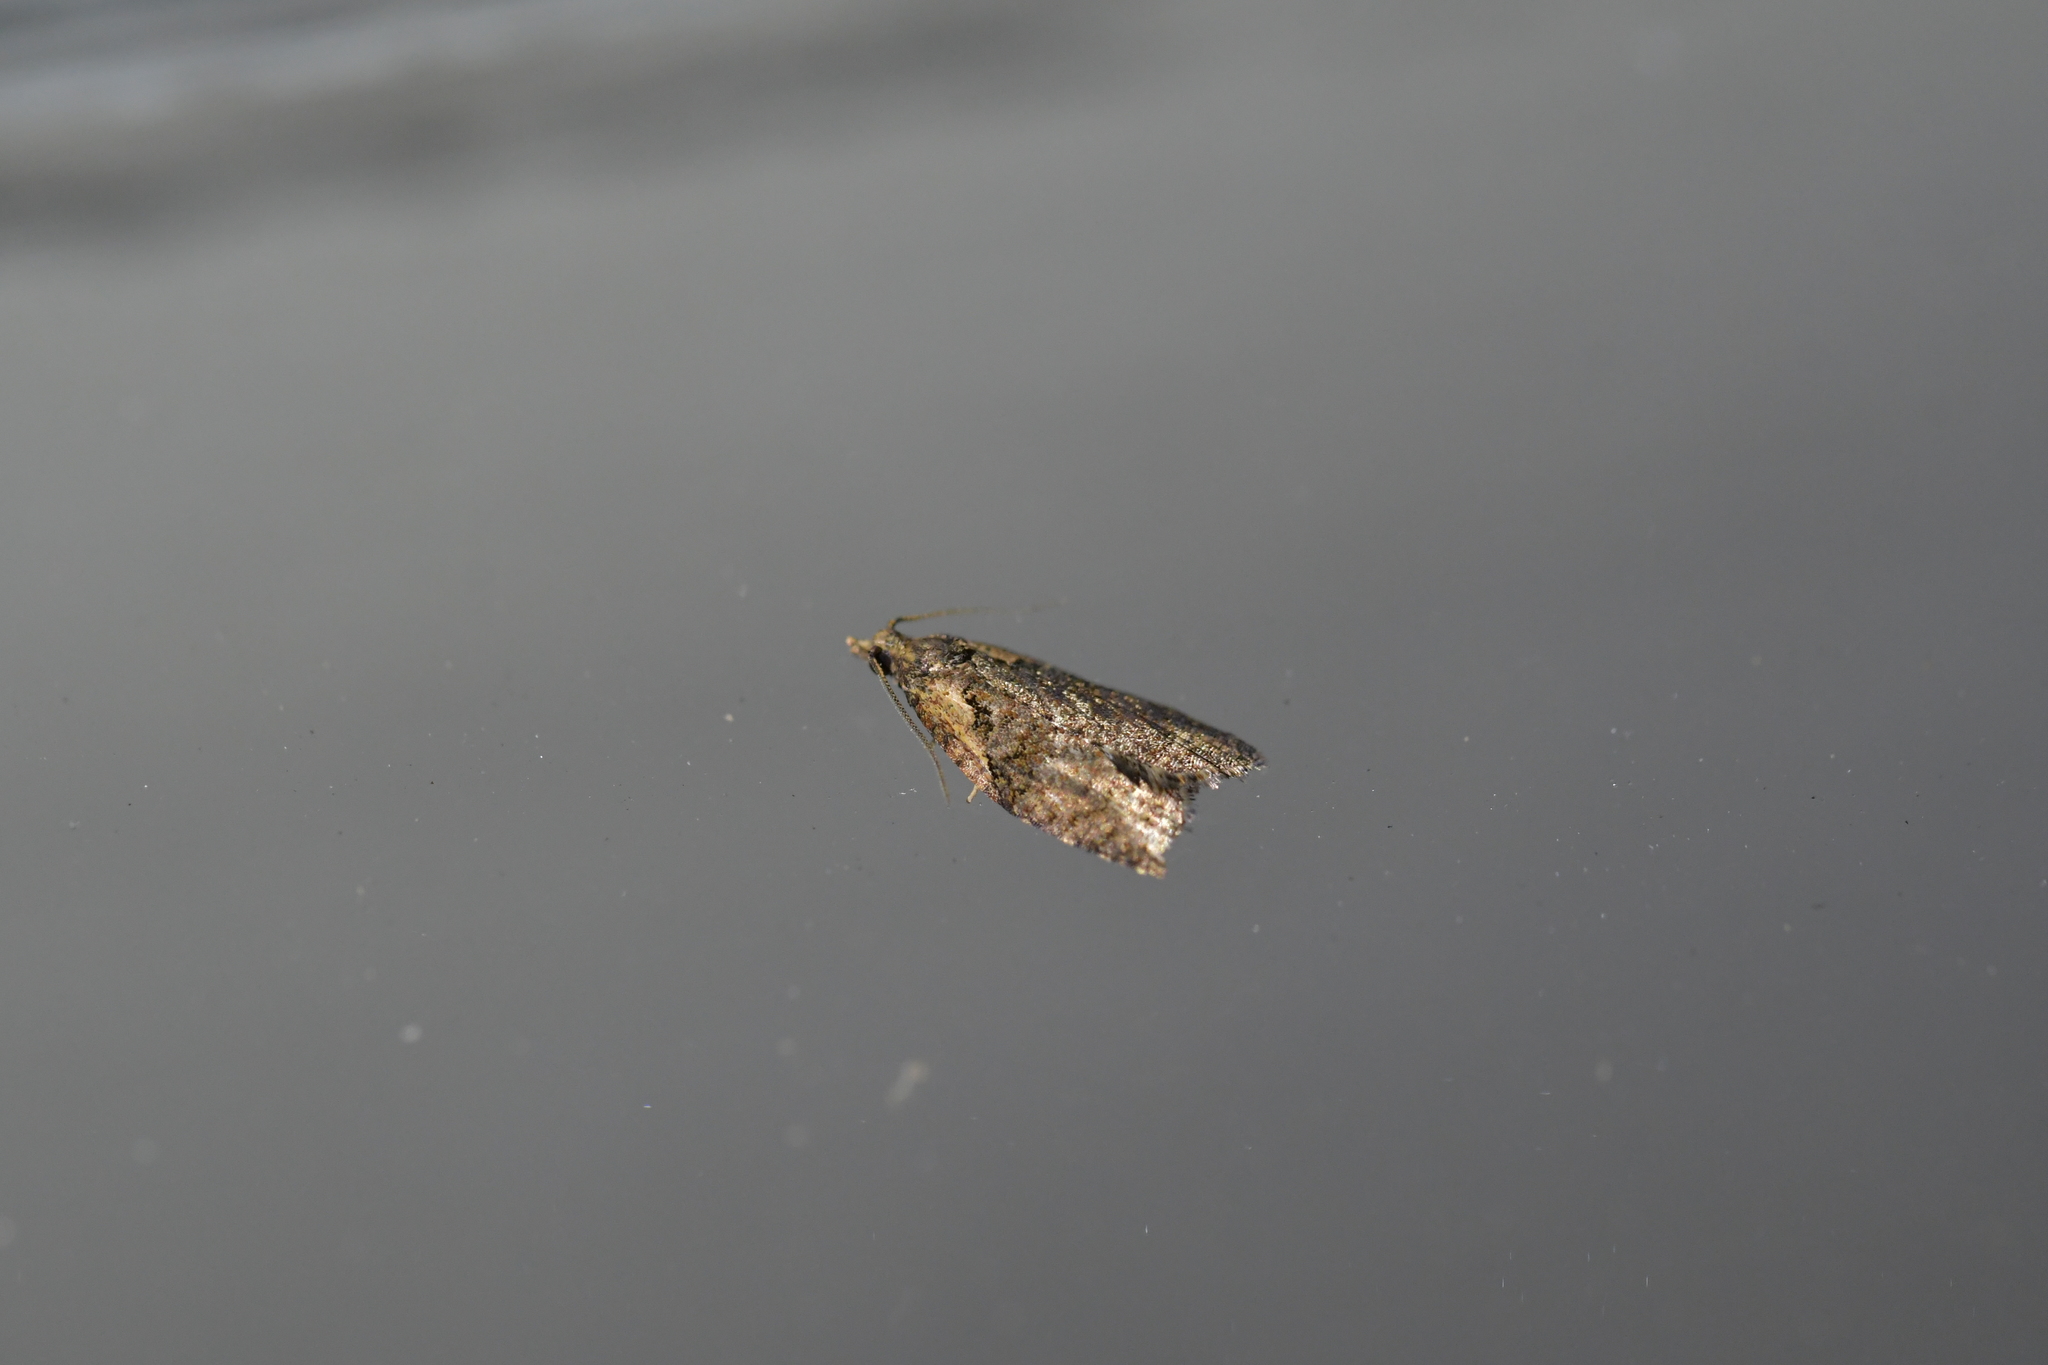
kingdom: Animalia
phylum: Arthropoda
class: Insecta
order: Lepidoptera
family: Tortricidae
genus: Capua
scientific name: Capua intractana
